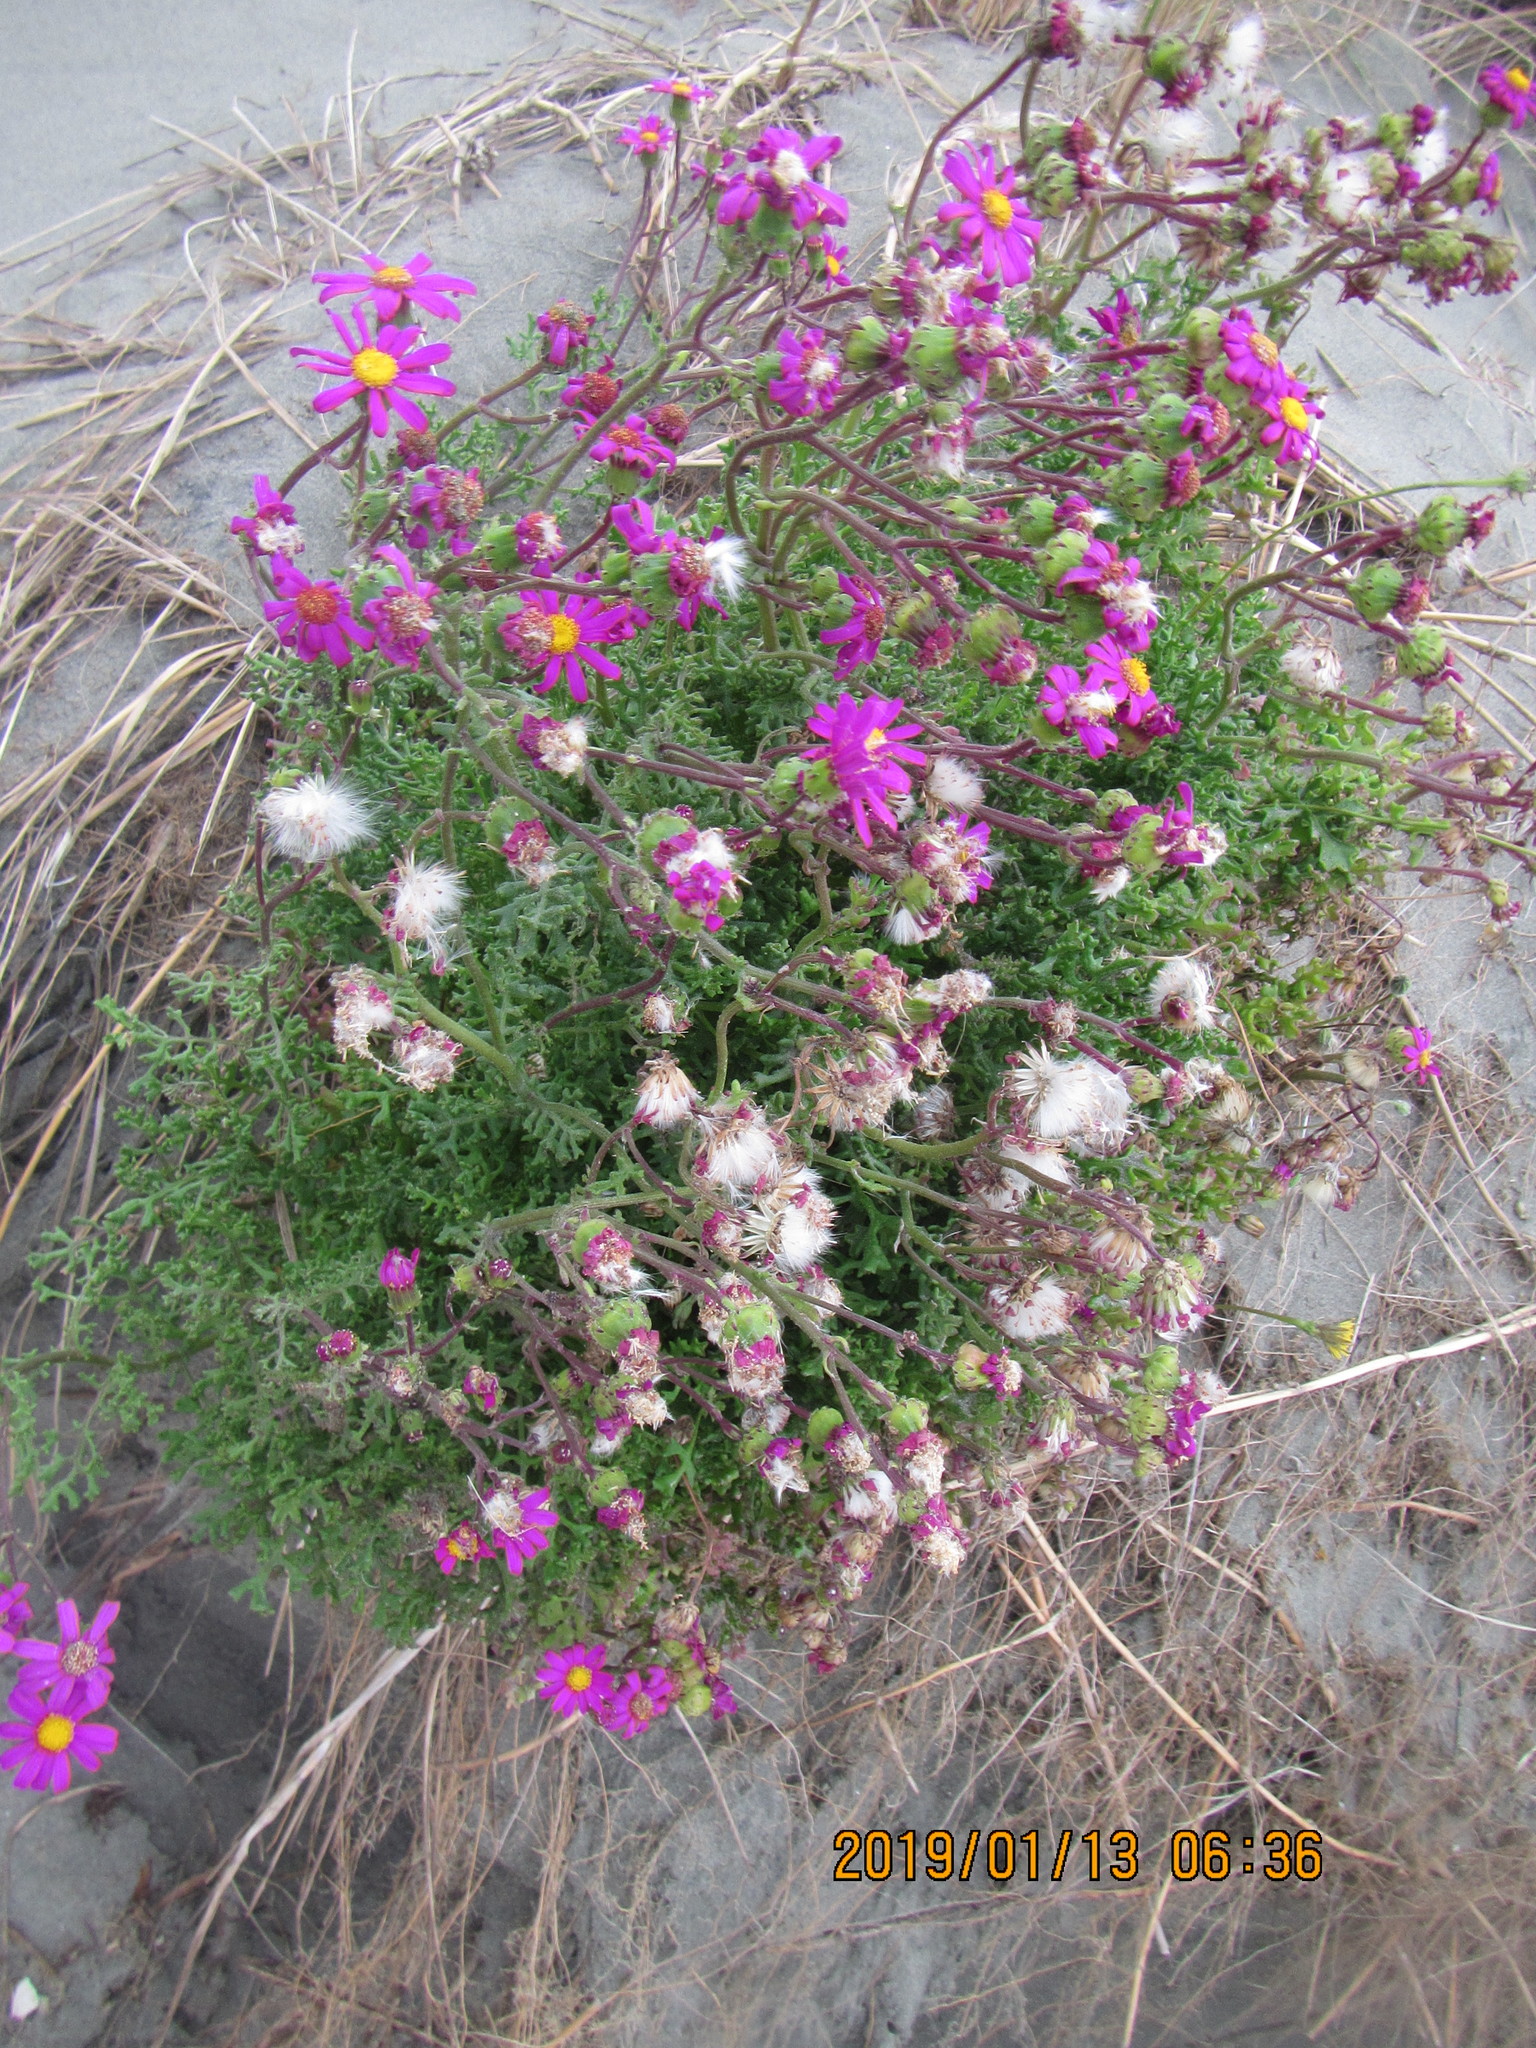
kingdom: Plantae
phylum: Tracheophyta
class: Magnoliopsida
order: Asterales
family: Asteraceae
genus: Senecio
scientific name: Senecio elegans
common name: Purple groundsel
